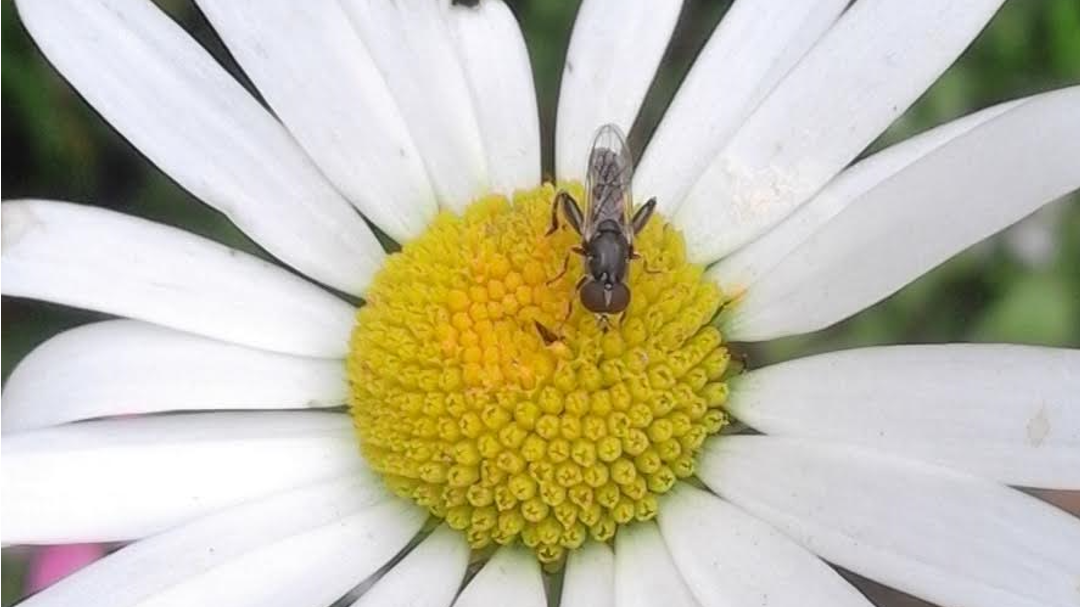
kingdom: Animalia
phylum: Arthropoda
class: Insecta
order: Diptera
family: Syrphidae
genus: Syritta
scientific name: Syritta pipiens
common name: Hover fly
